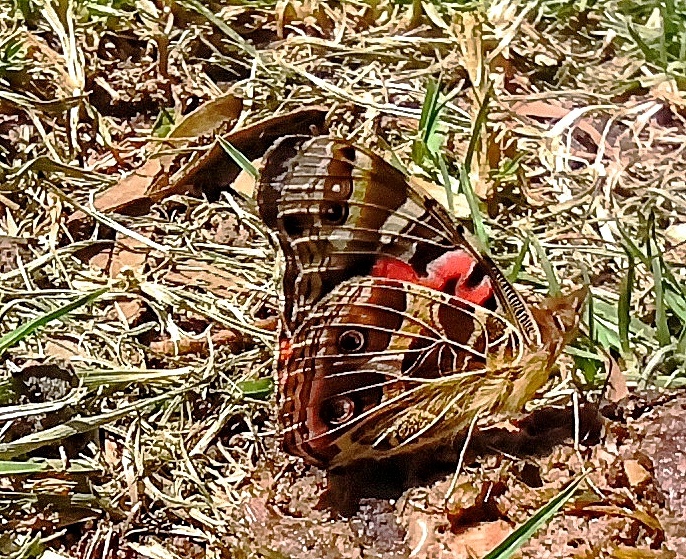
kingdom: Animalia
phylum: Arthropoda
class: Insecta
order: Lepidoptera
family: Nymphalidae
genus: Vanessa
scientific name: Vanessa braziliensis
